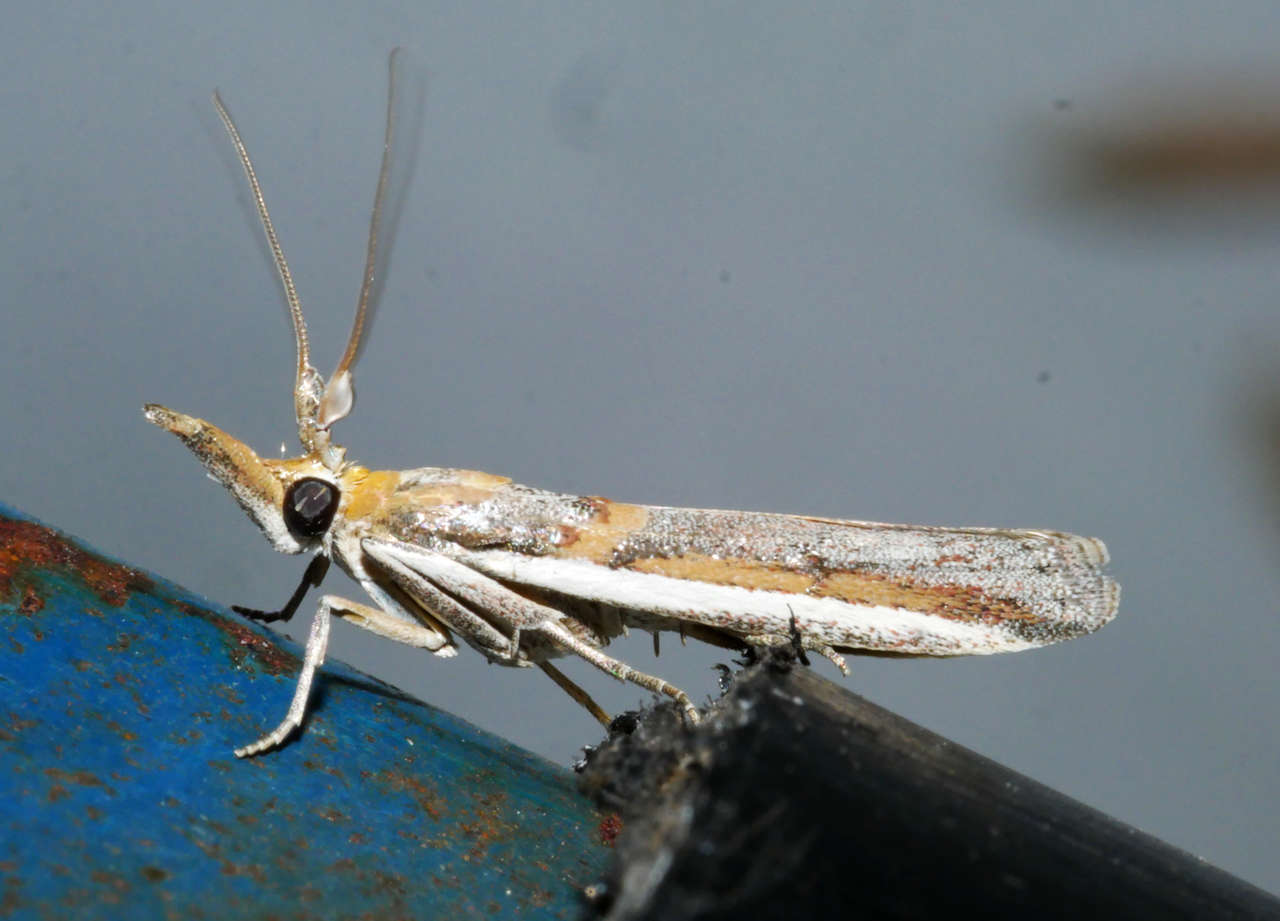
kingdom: Animalia
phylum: Arthropoda
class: Insecta
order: Lepidoptera
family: Pyralidae
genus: Etiella
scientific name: Etiella behrii
